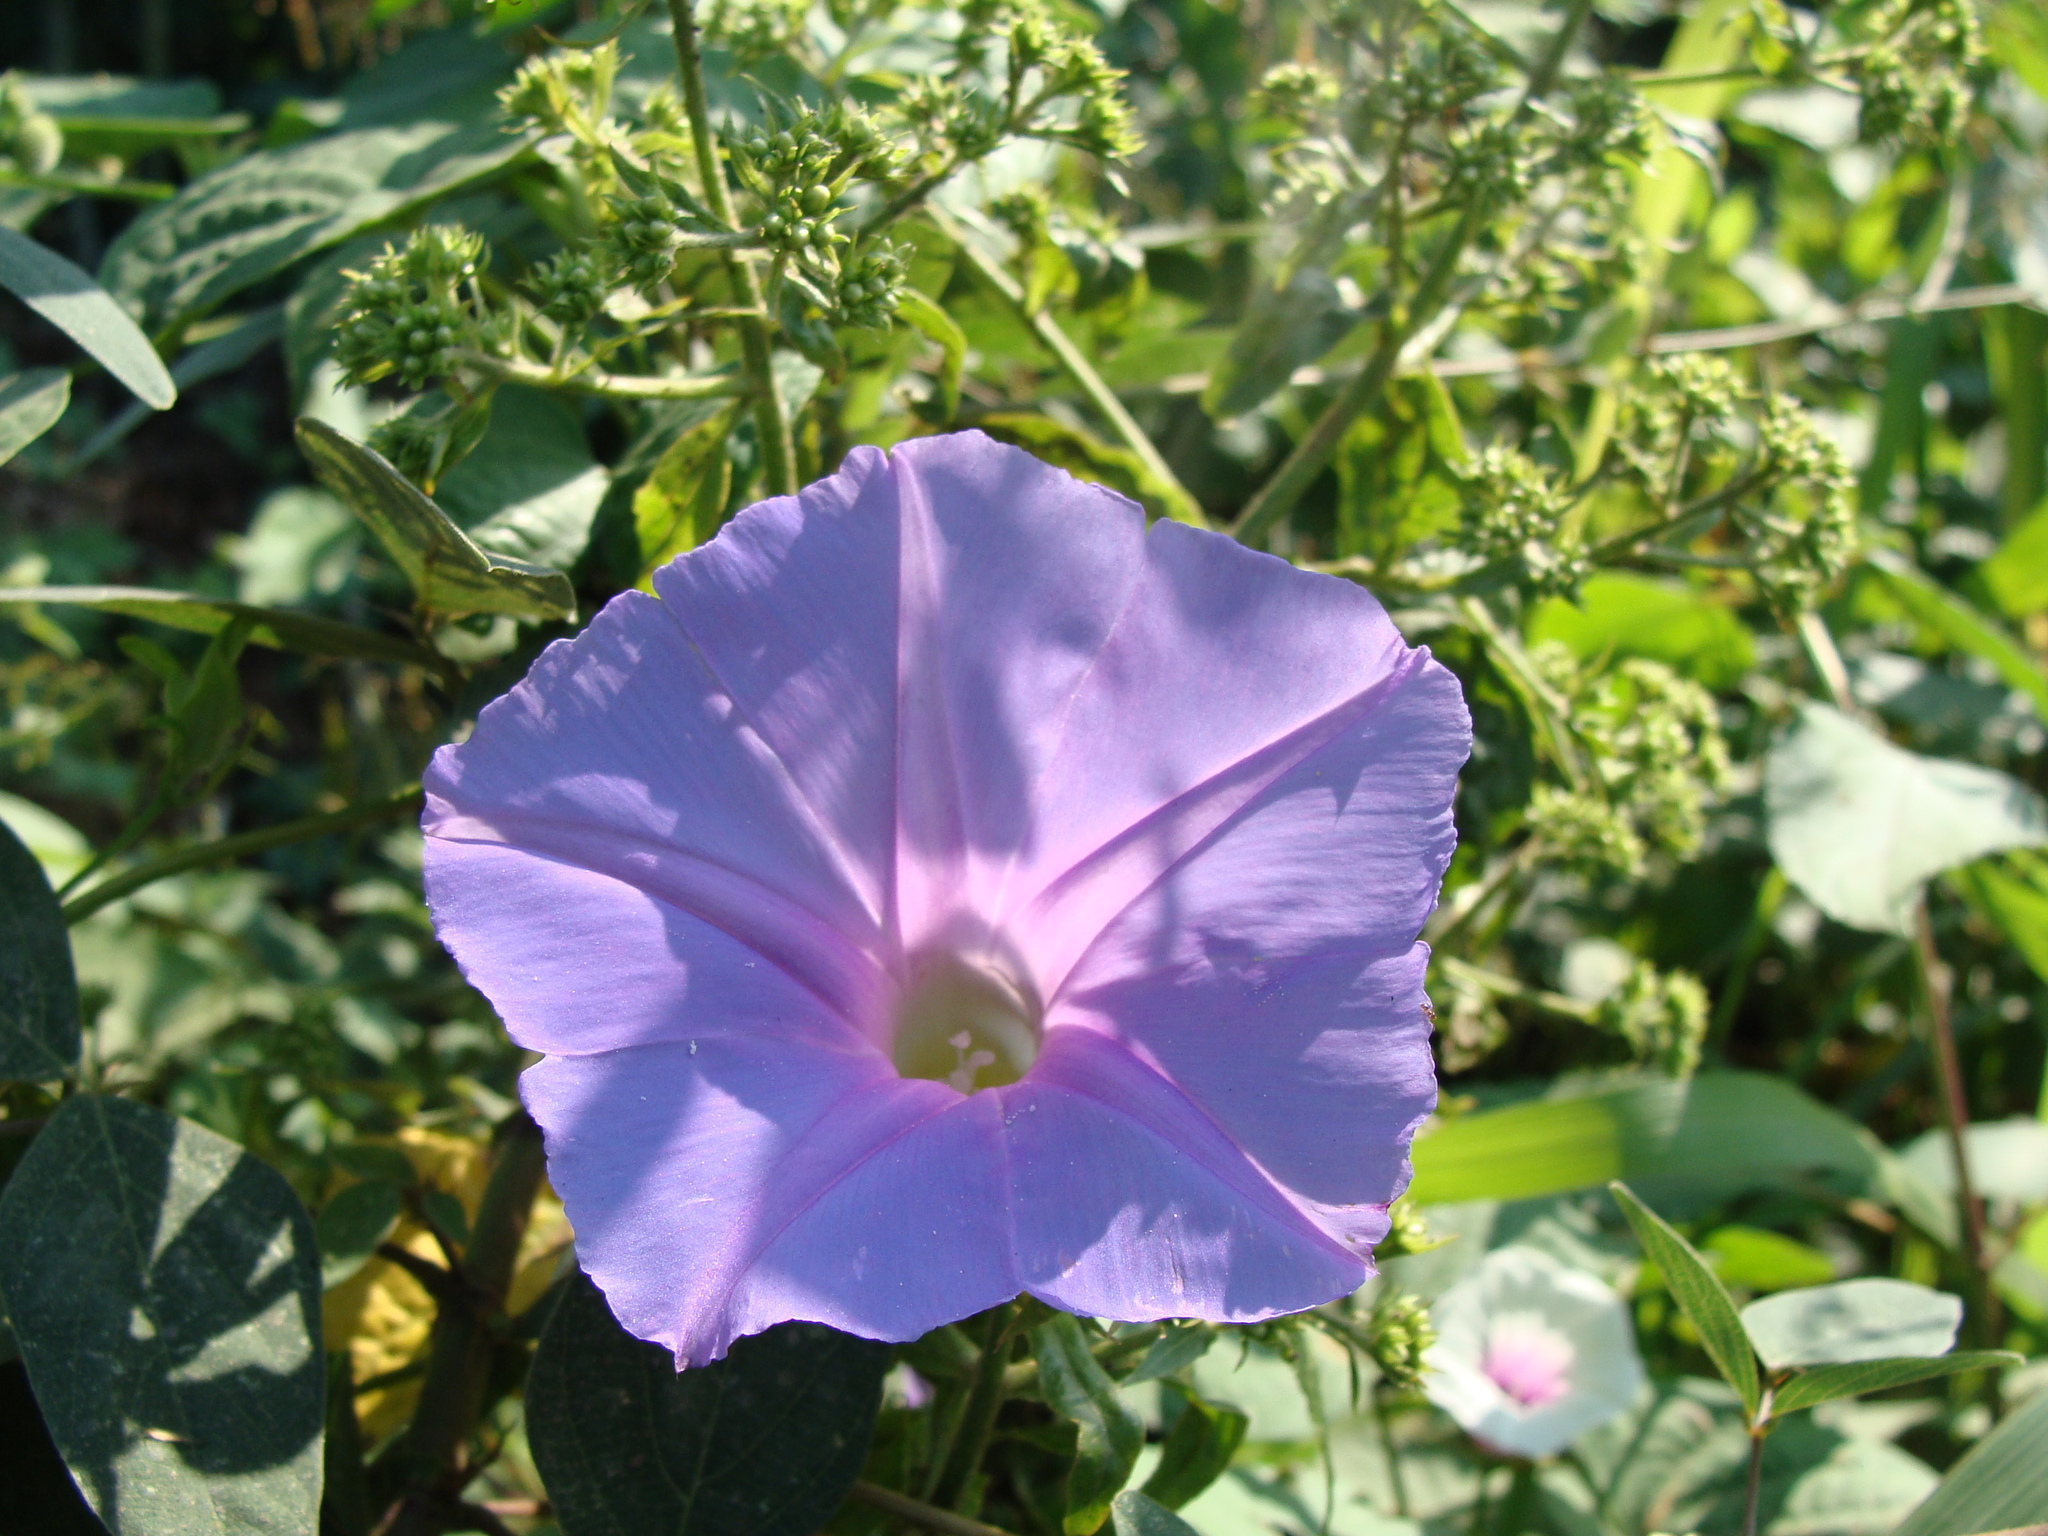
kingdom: Plantae
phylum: Tracheophyta
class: Magnoliopsida
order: Solanales
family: Convolvulaceae
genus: Ipomoea
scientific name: Ipomoea mitchelliae
